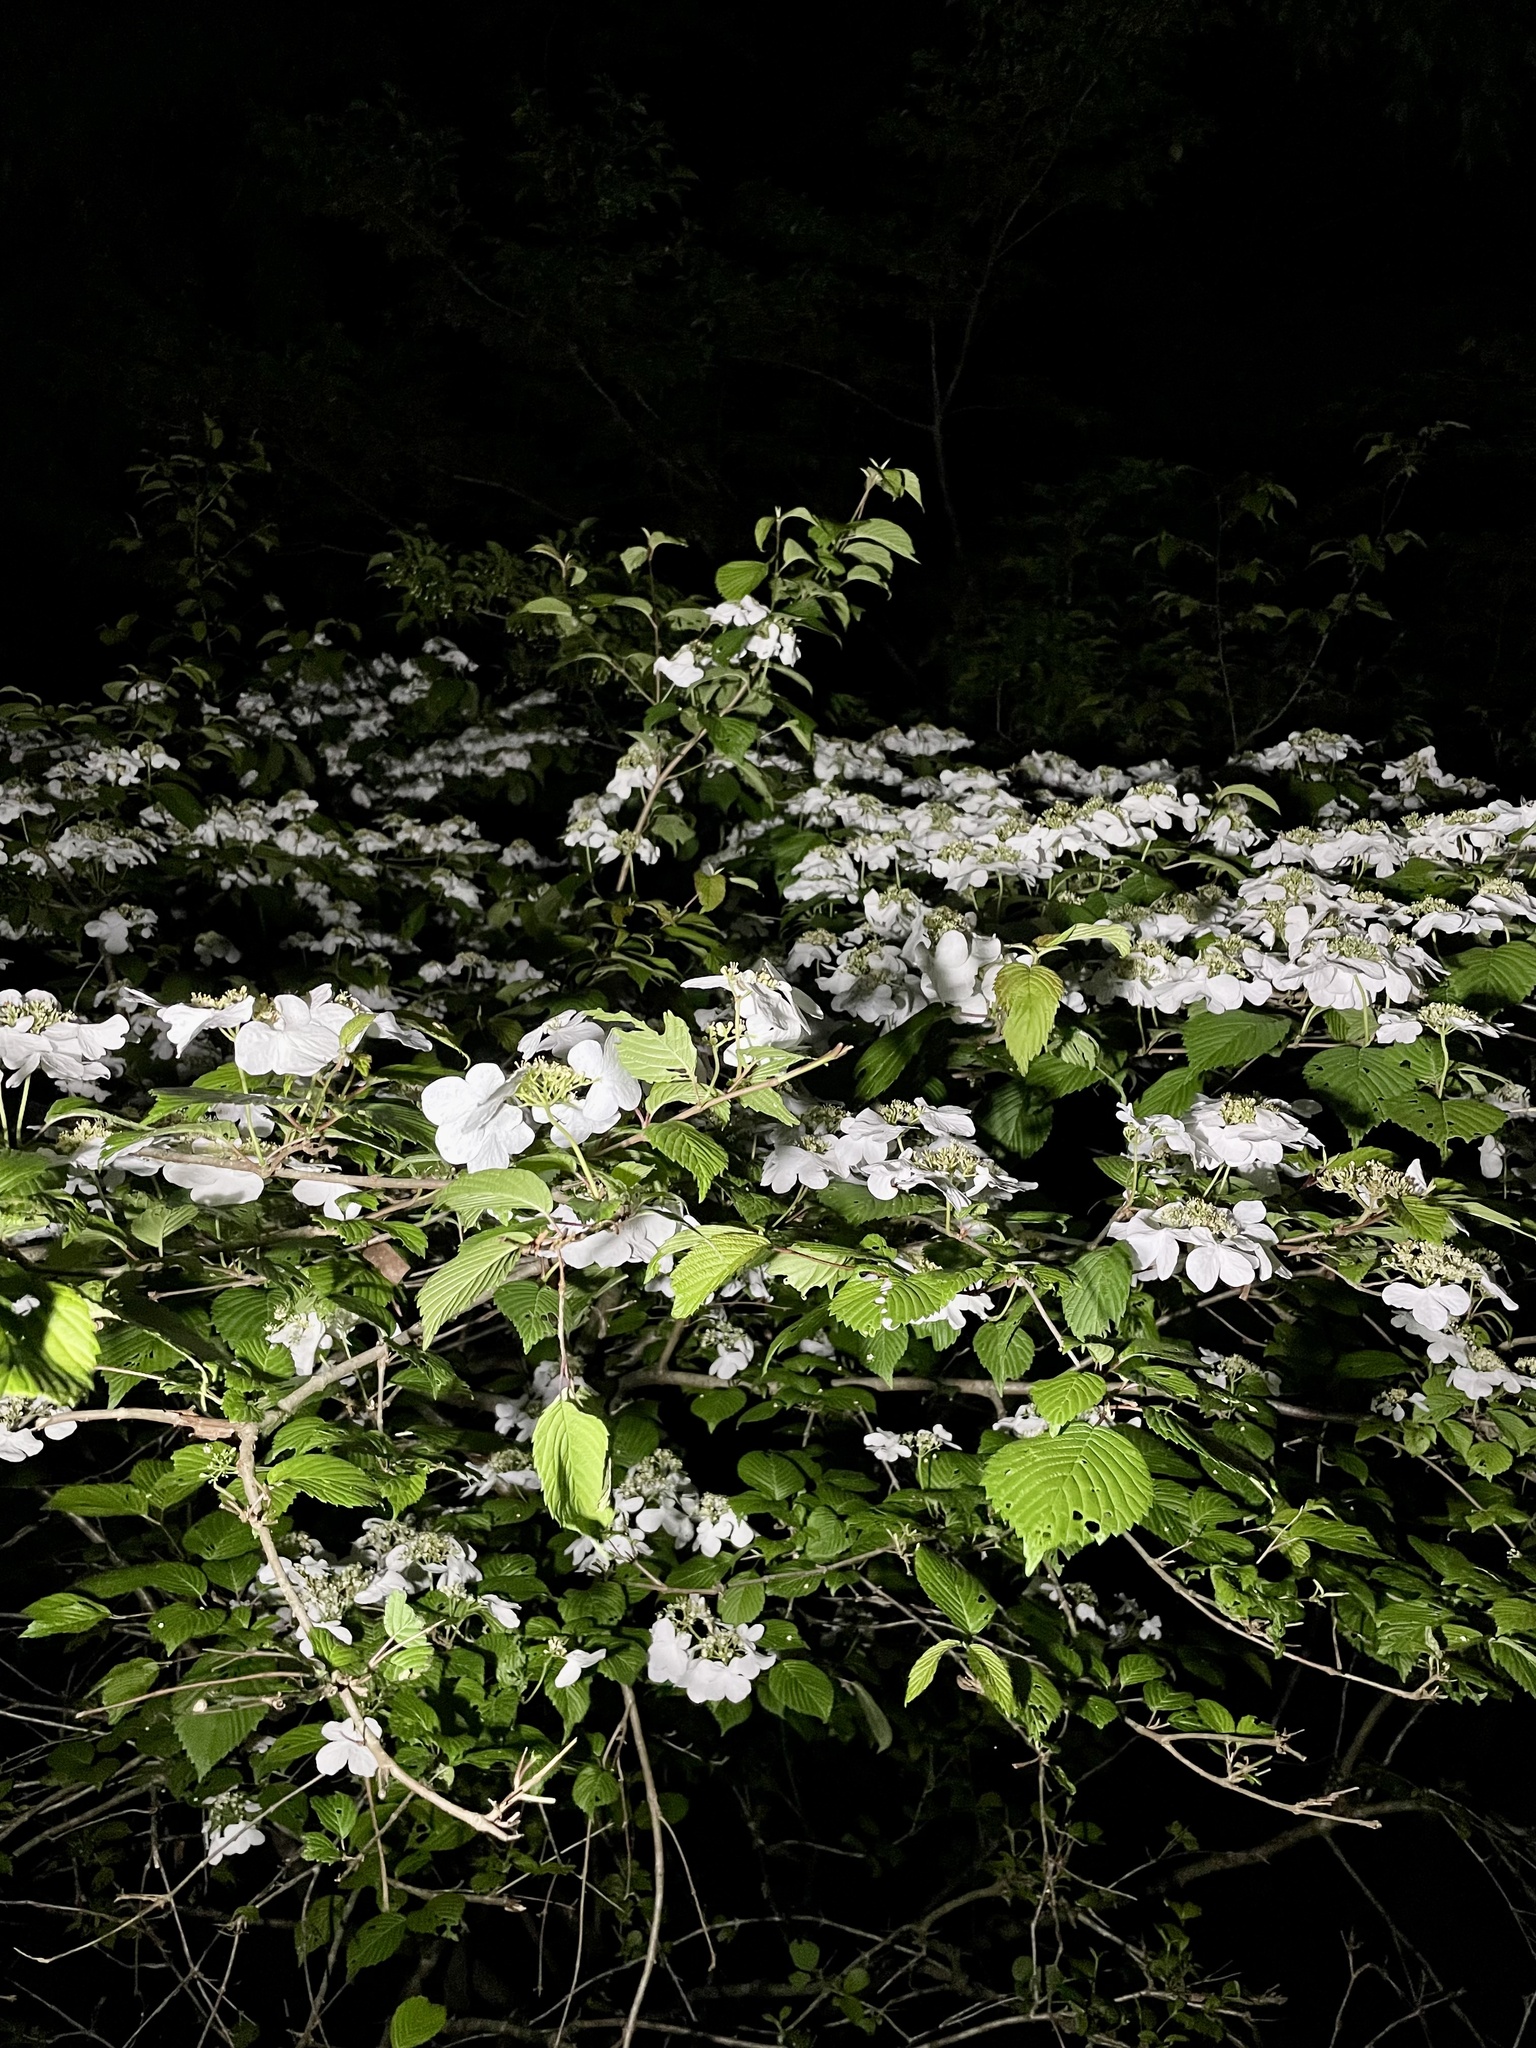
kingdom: Plantae
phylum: Tracheophyta
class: Magnoliopsida
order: Dipsacales
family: Viburnaceae
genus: Viburnum
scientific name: Viburnum plicatum
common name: Japanese snowball
